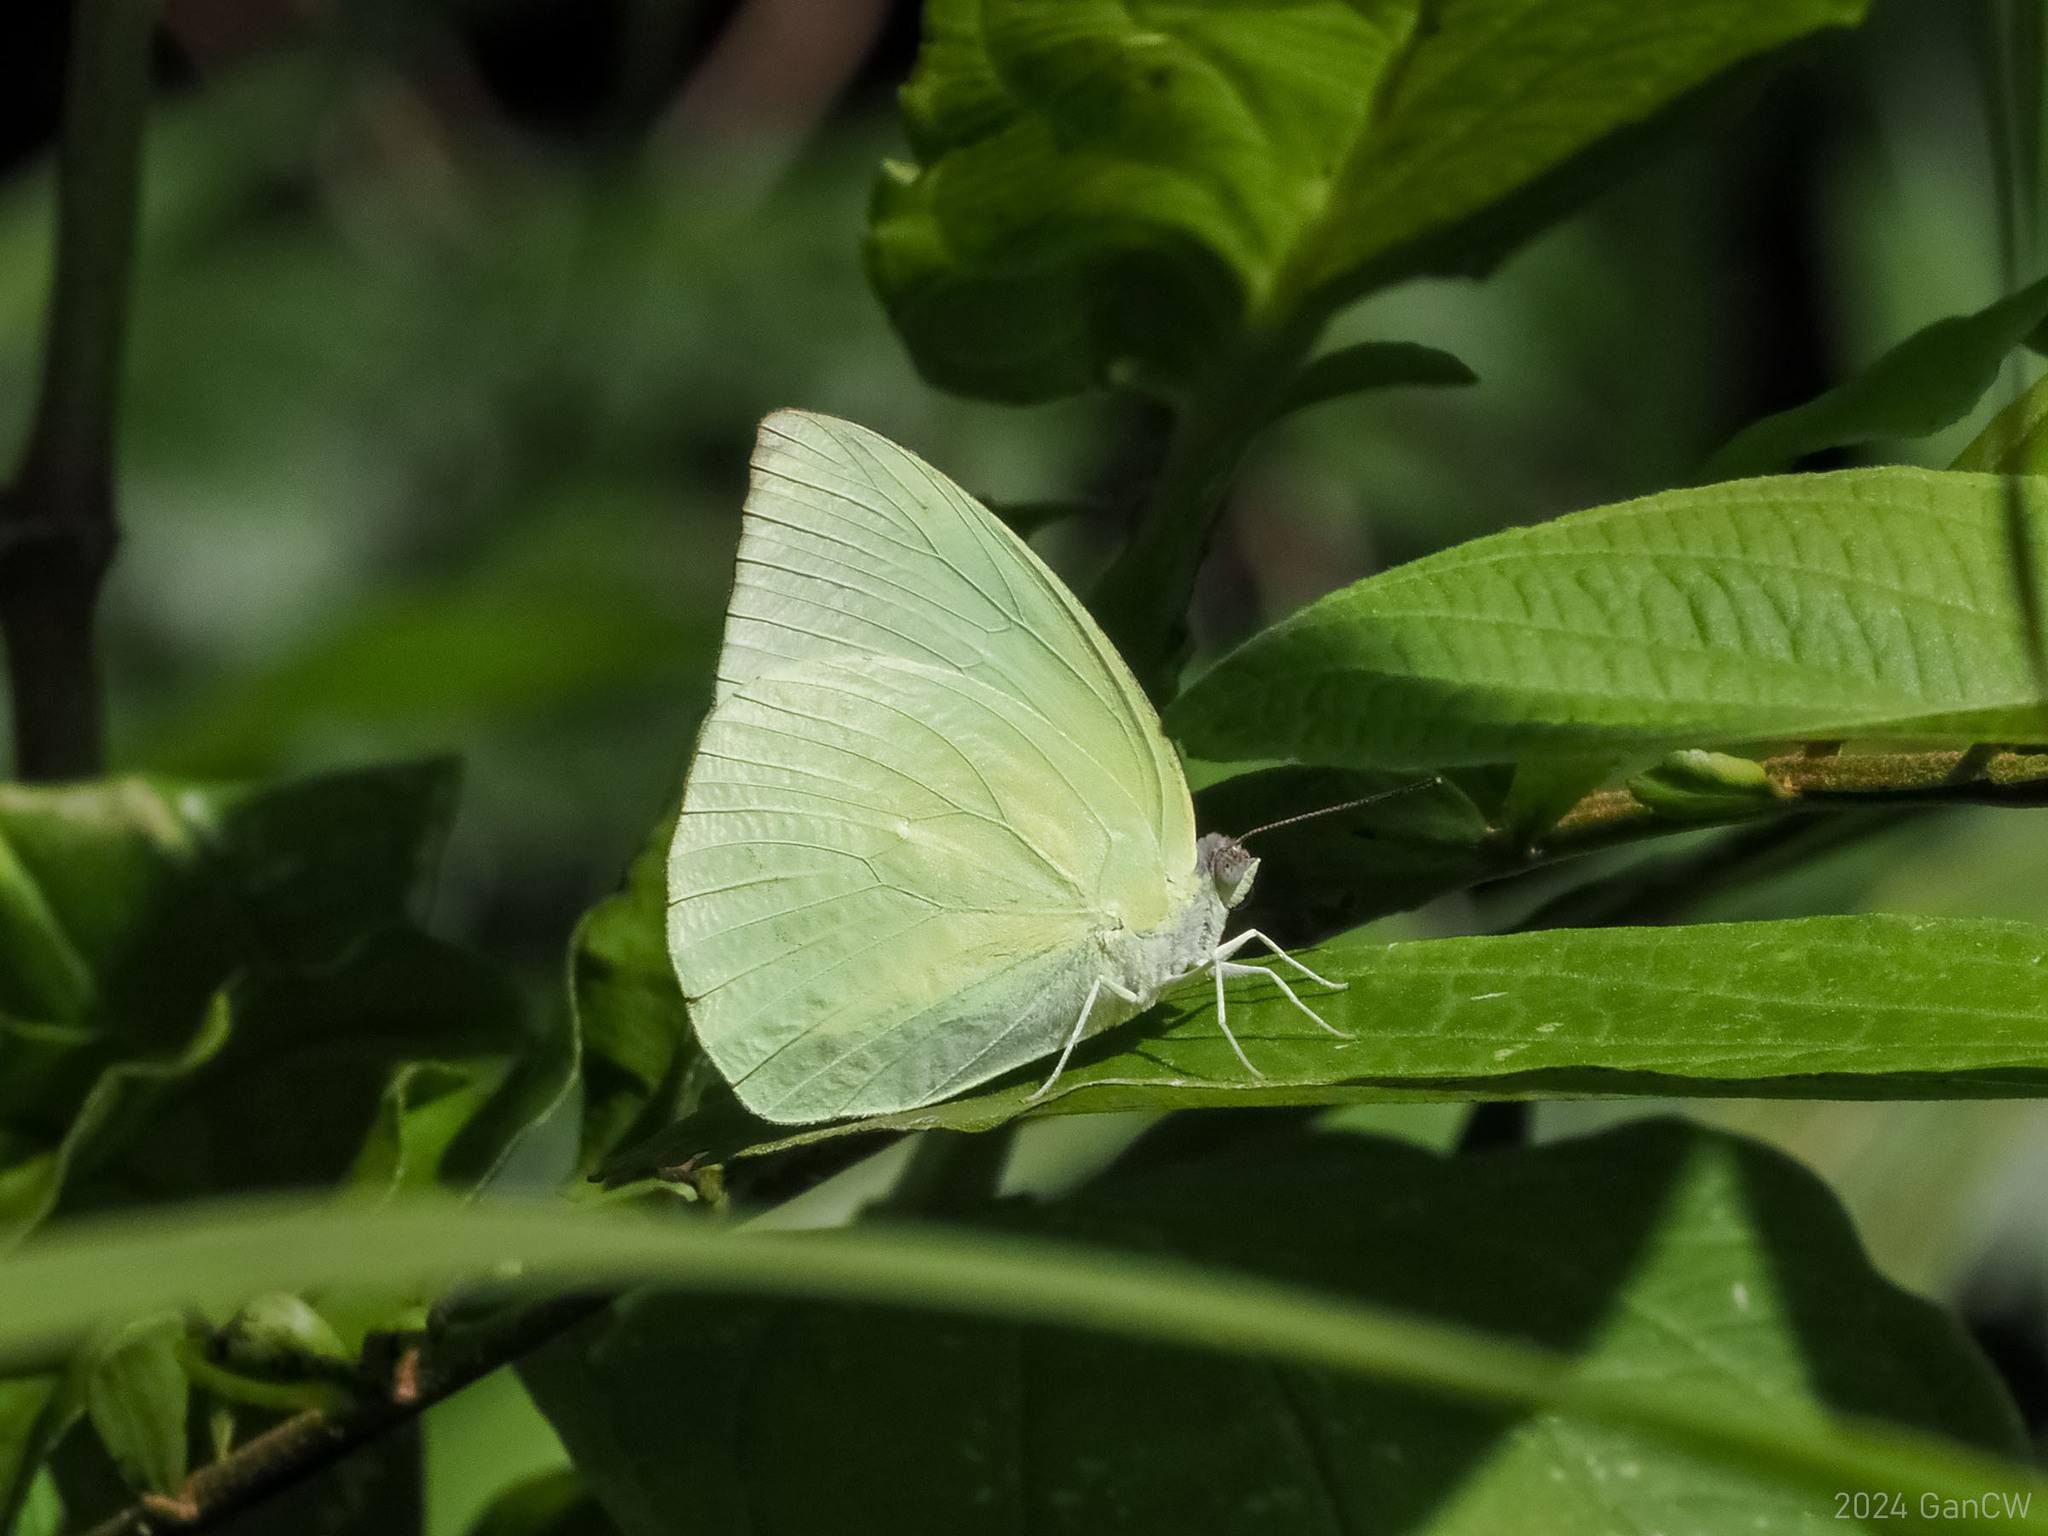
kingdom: Animalia
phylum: Arthropoda
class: Insecta
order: Lepidoptera
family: Pieridae
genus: Catopsilia
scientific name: Catopsilia pomona
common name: Common emigrant
